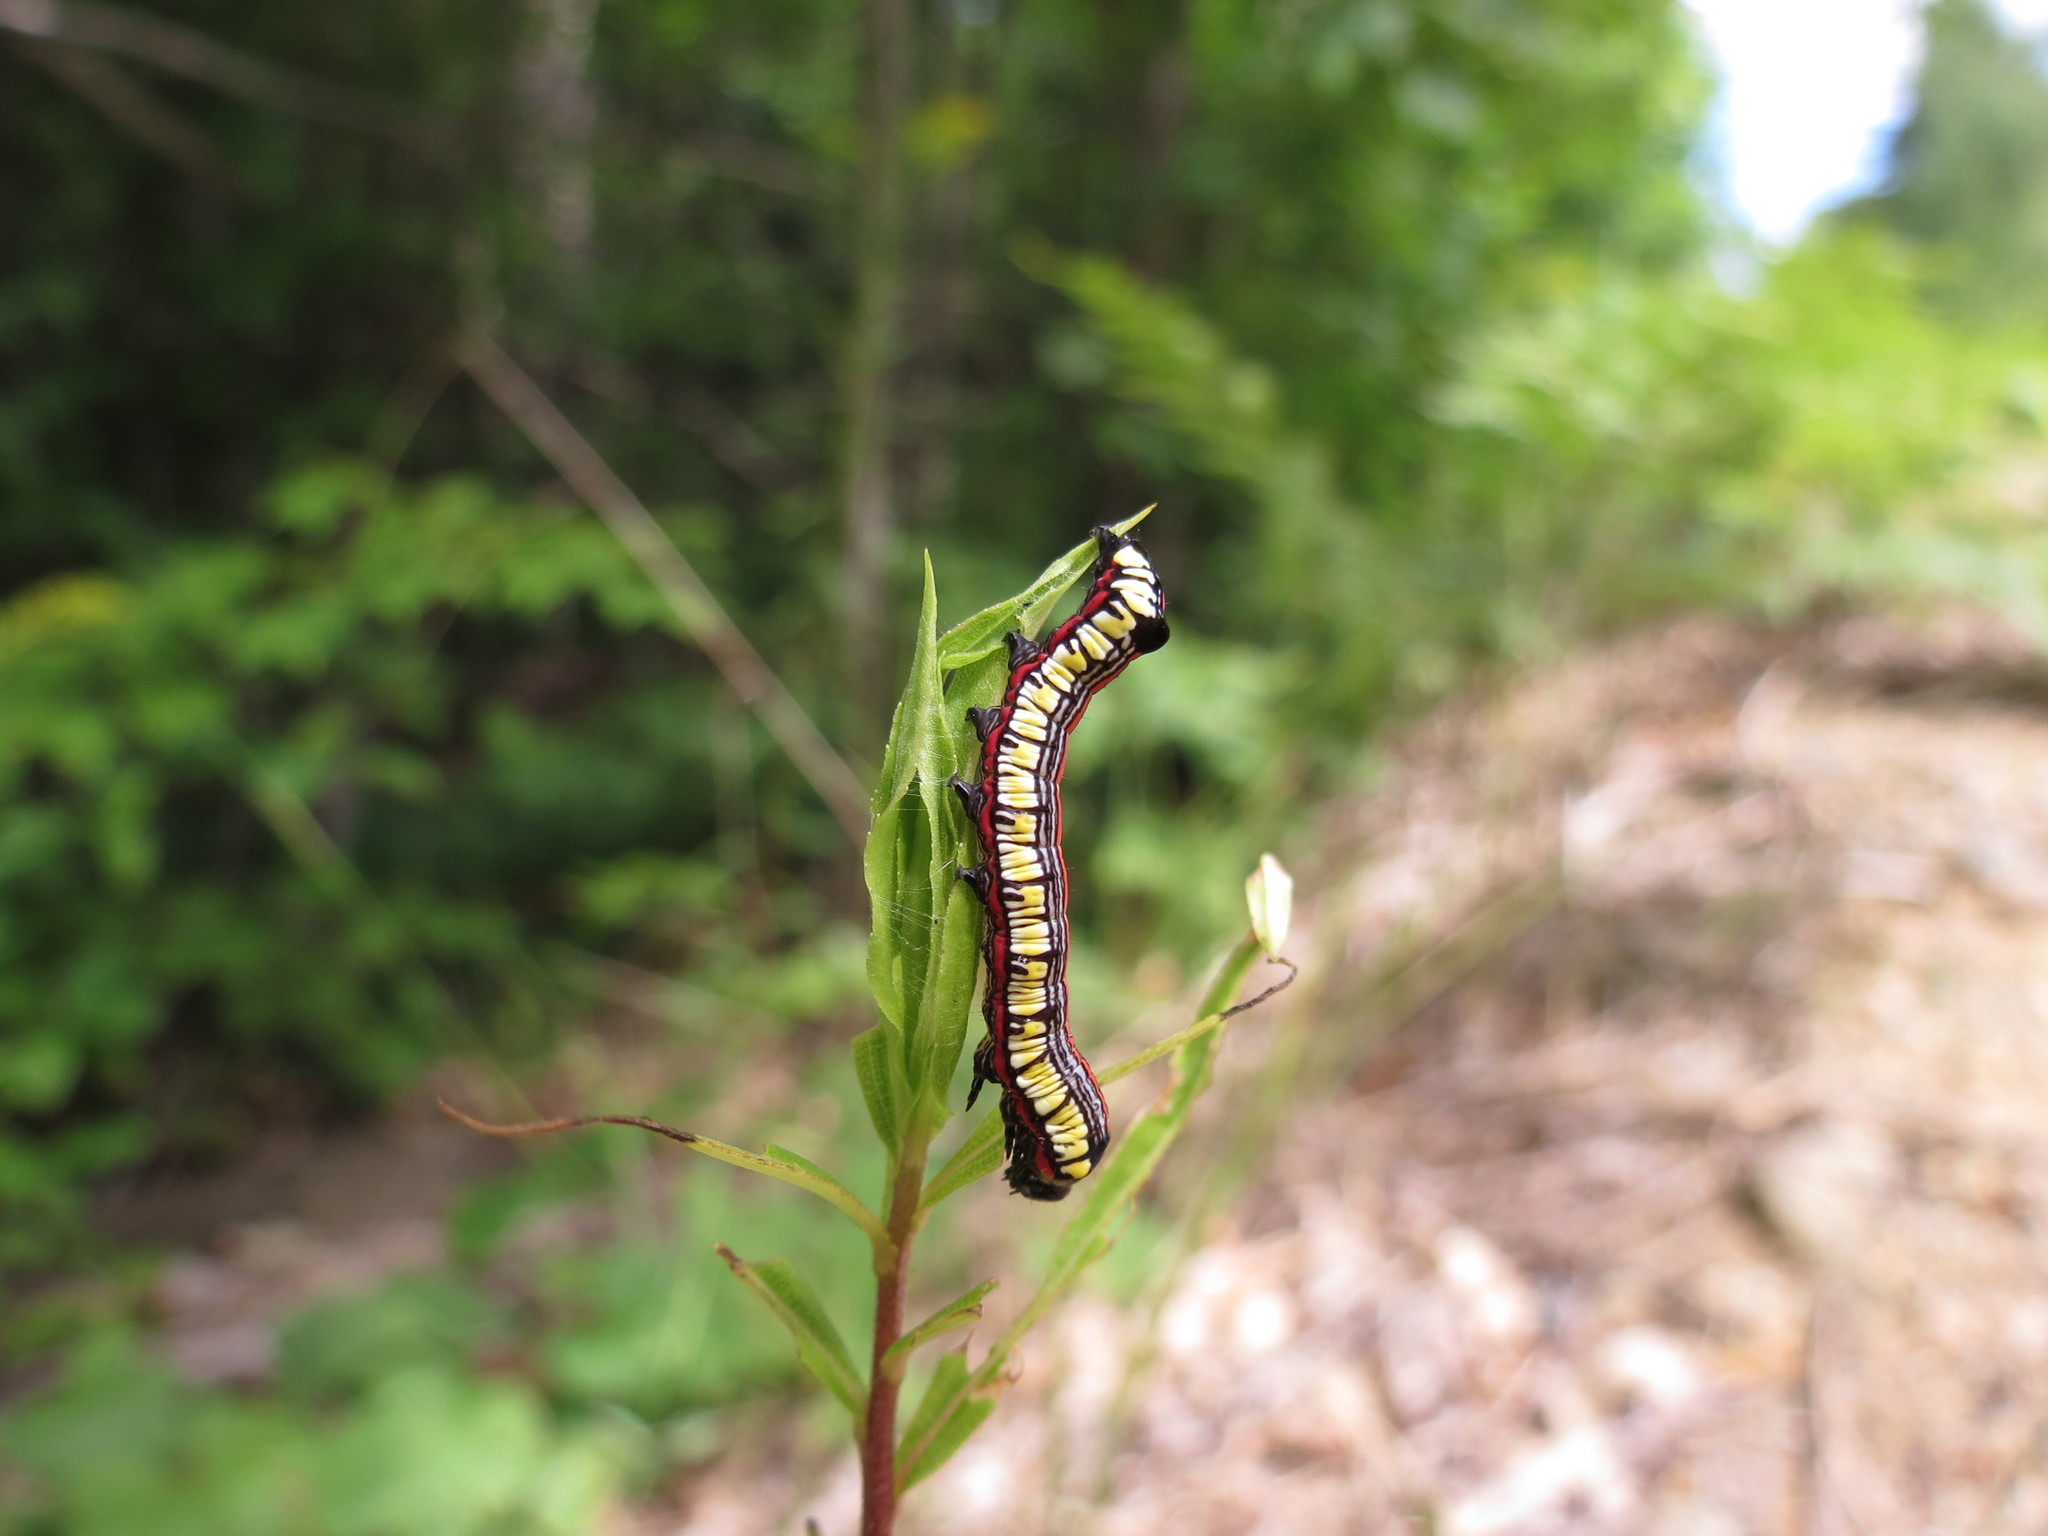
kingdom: Animalia
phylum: Arthropoda
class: Insecta
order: Lepidoptera
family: Noctuidae
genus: Cucullia
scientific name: Cucullia convexipennis
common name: Brown-hooded owlet
